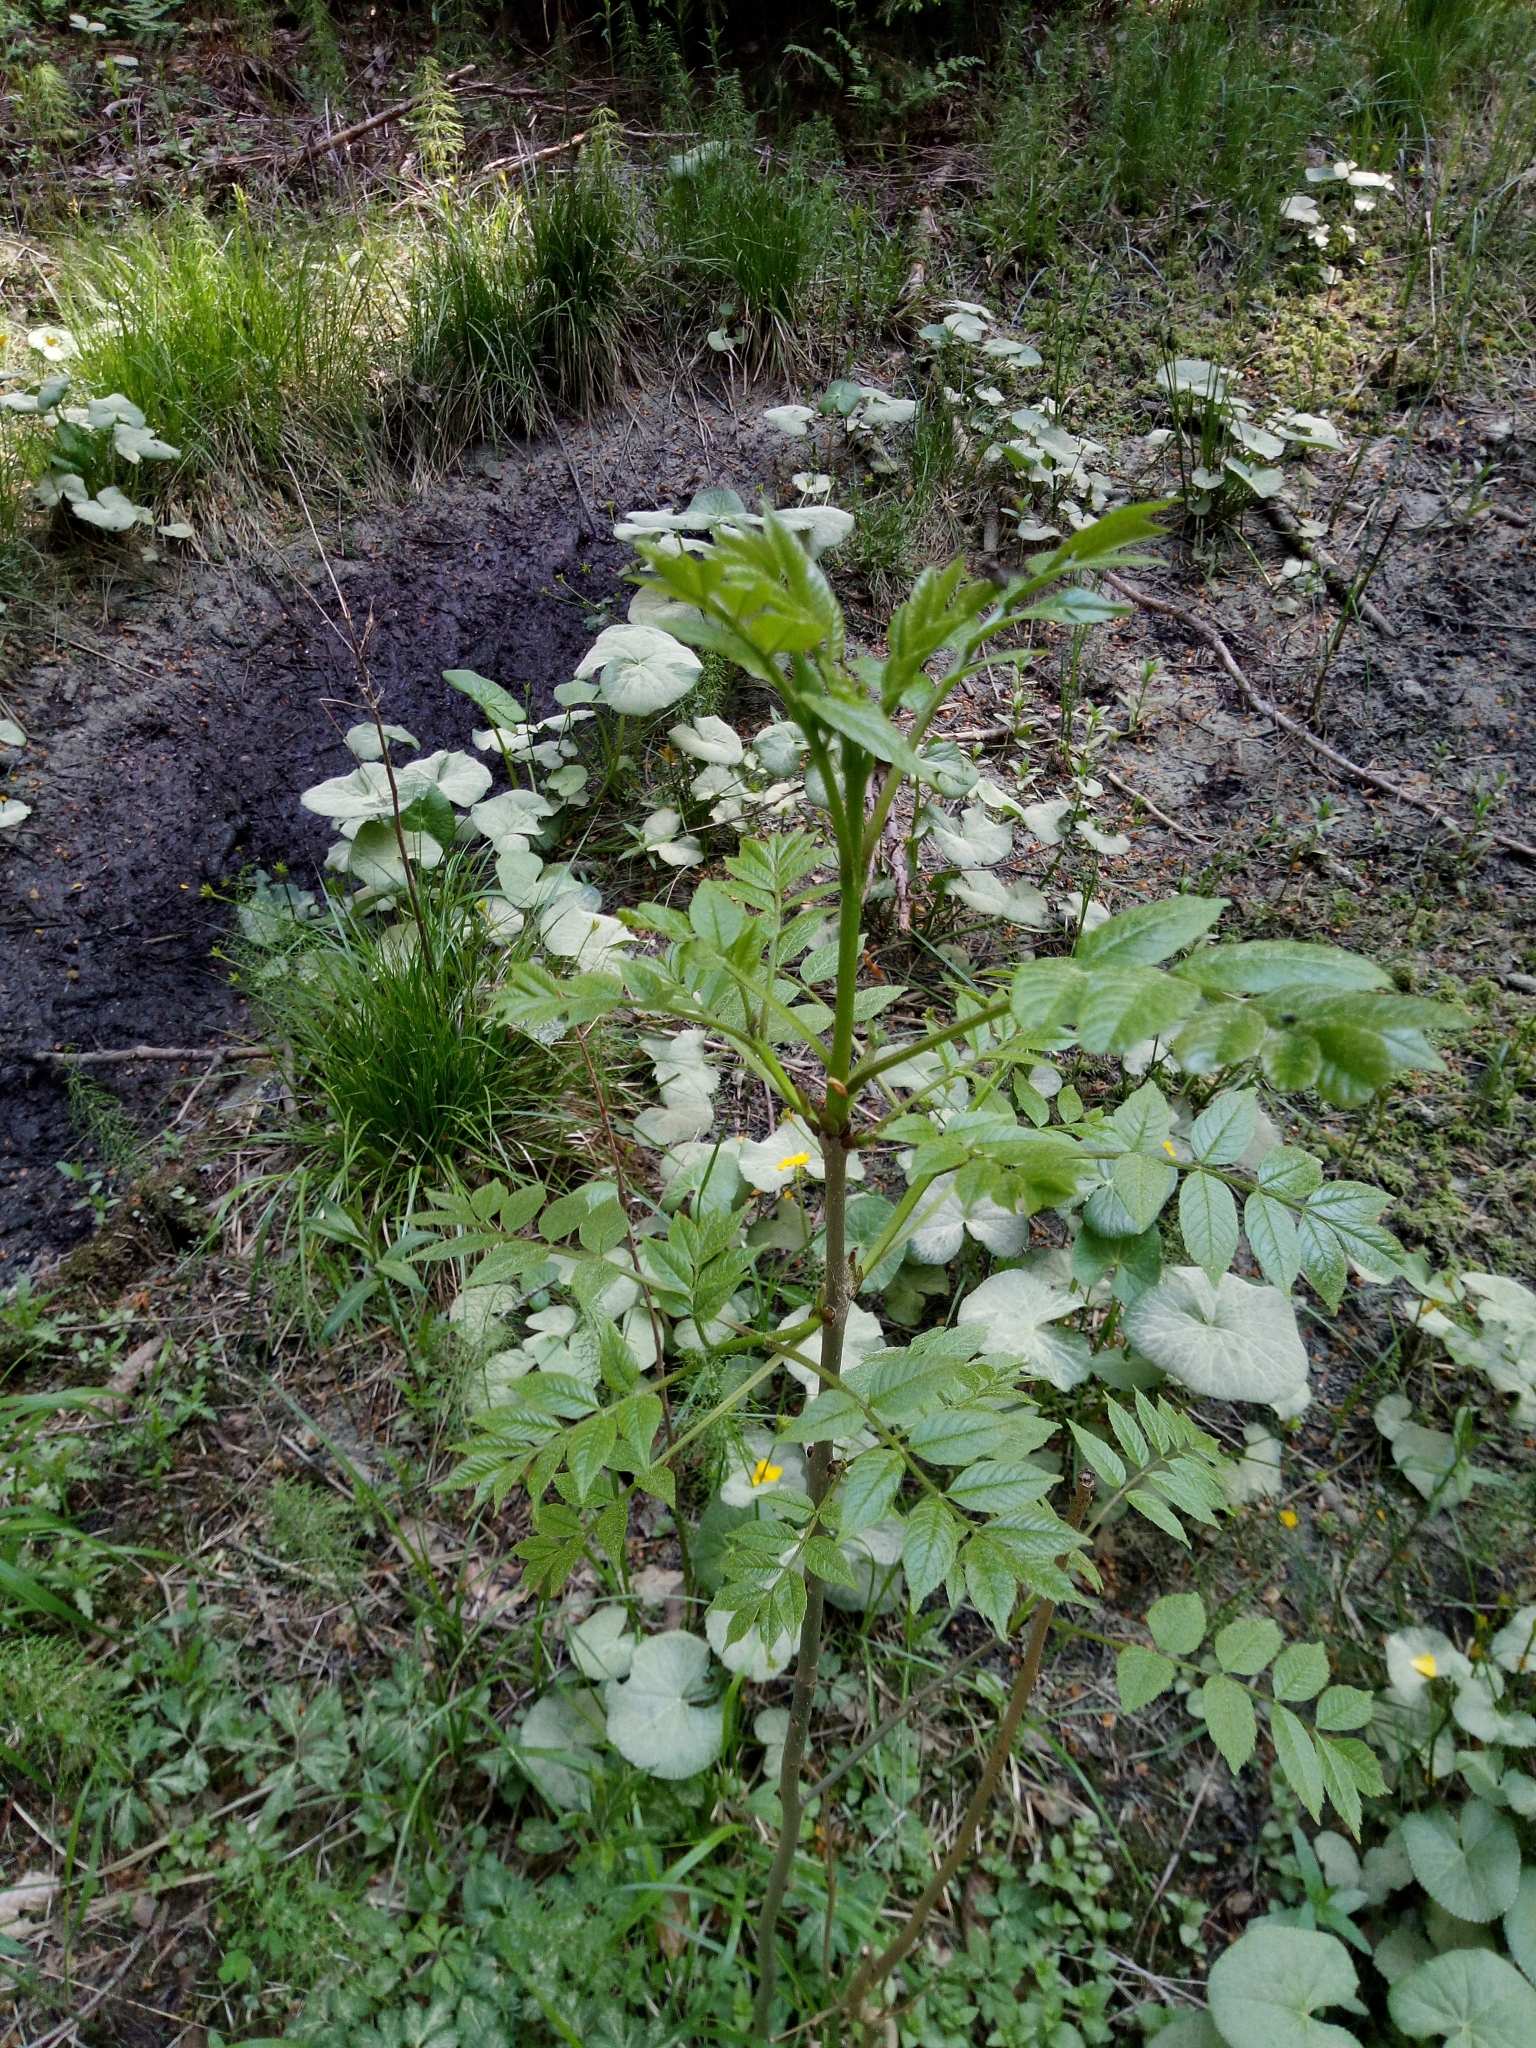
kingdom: Plantae
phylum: Tracheophyta
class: Magnoliopsida
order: Lamiales
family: Oleaceae
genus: Fraxinus
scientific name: Fraxinus excelsior
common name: European ash
